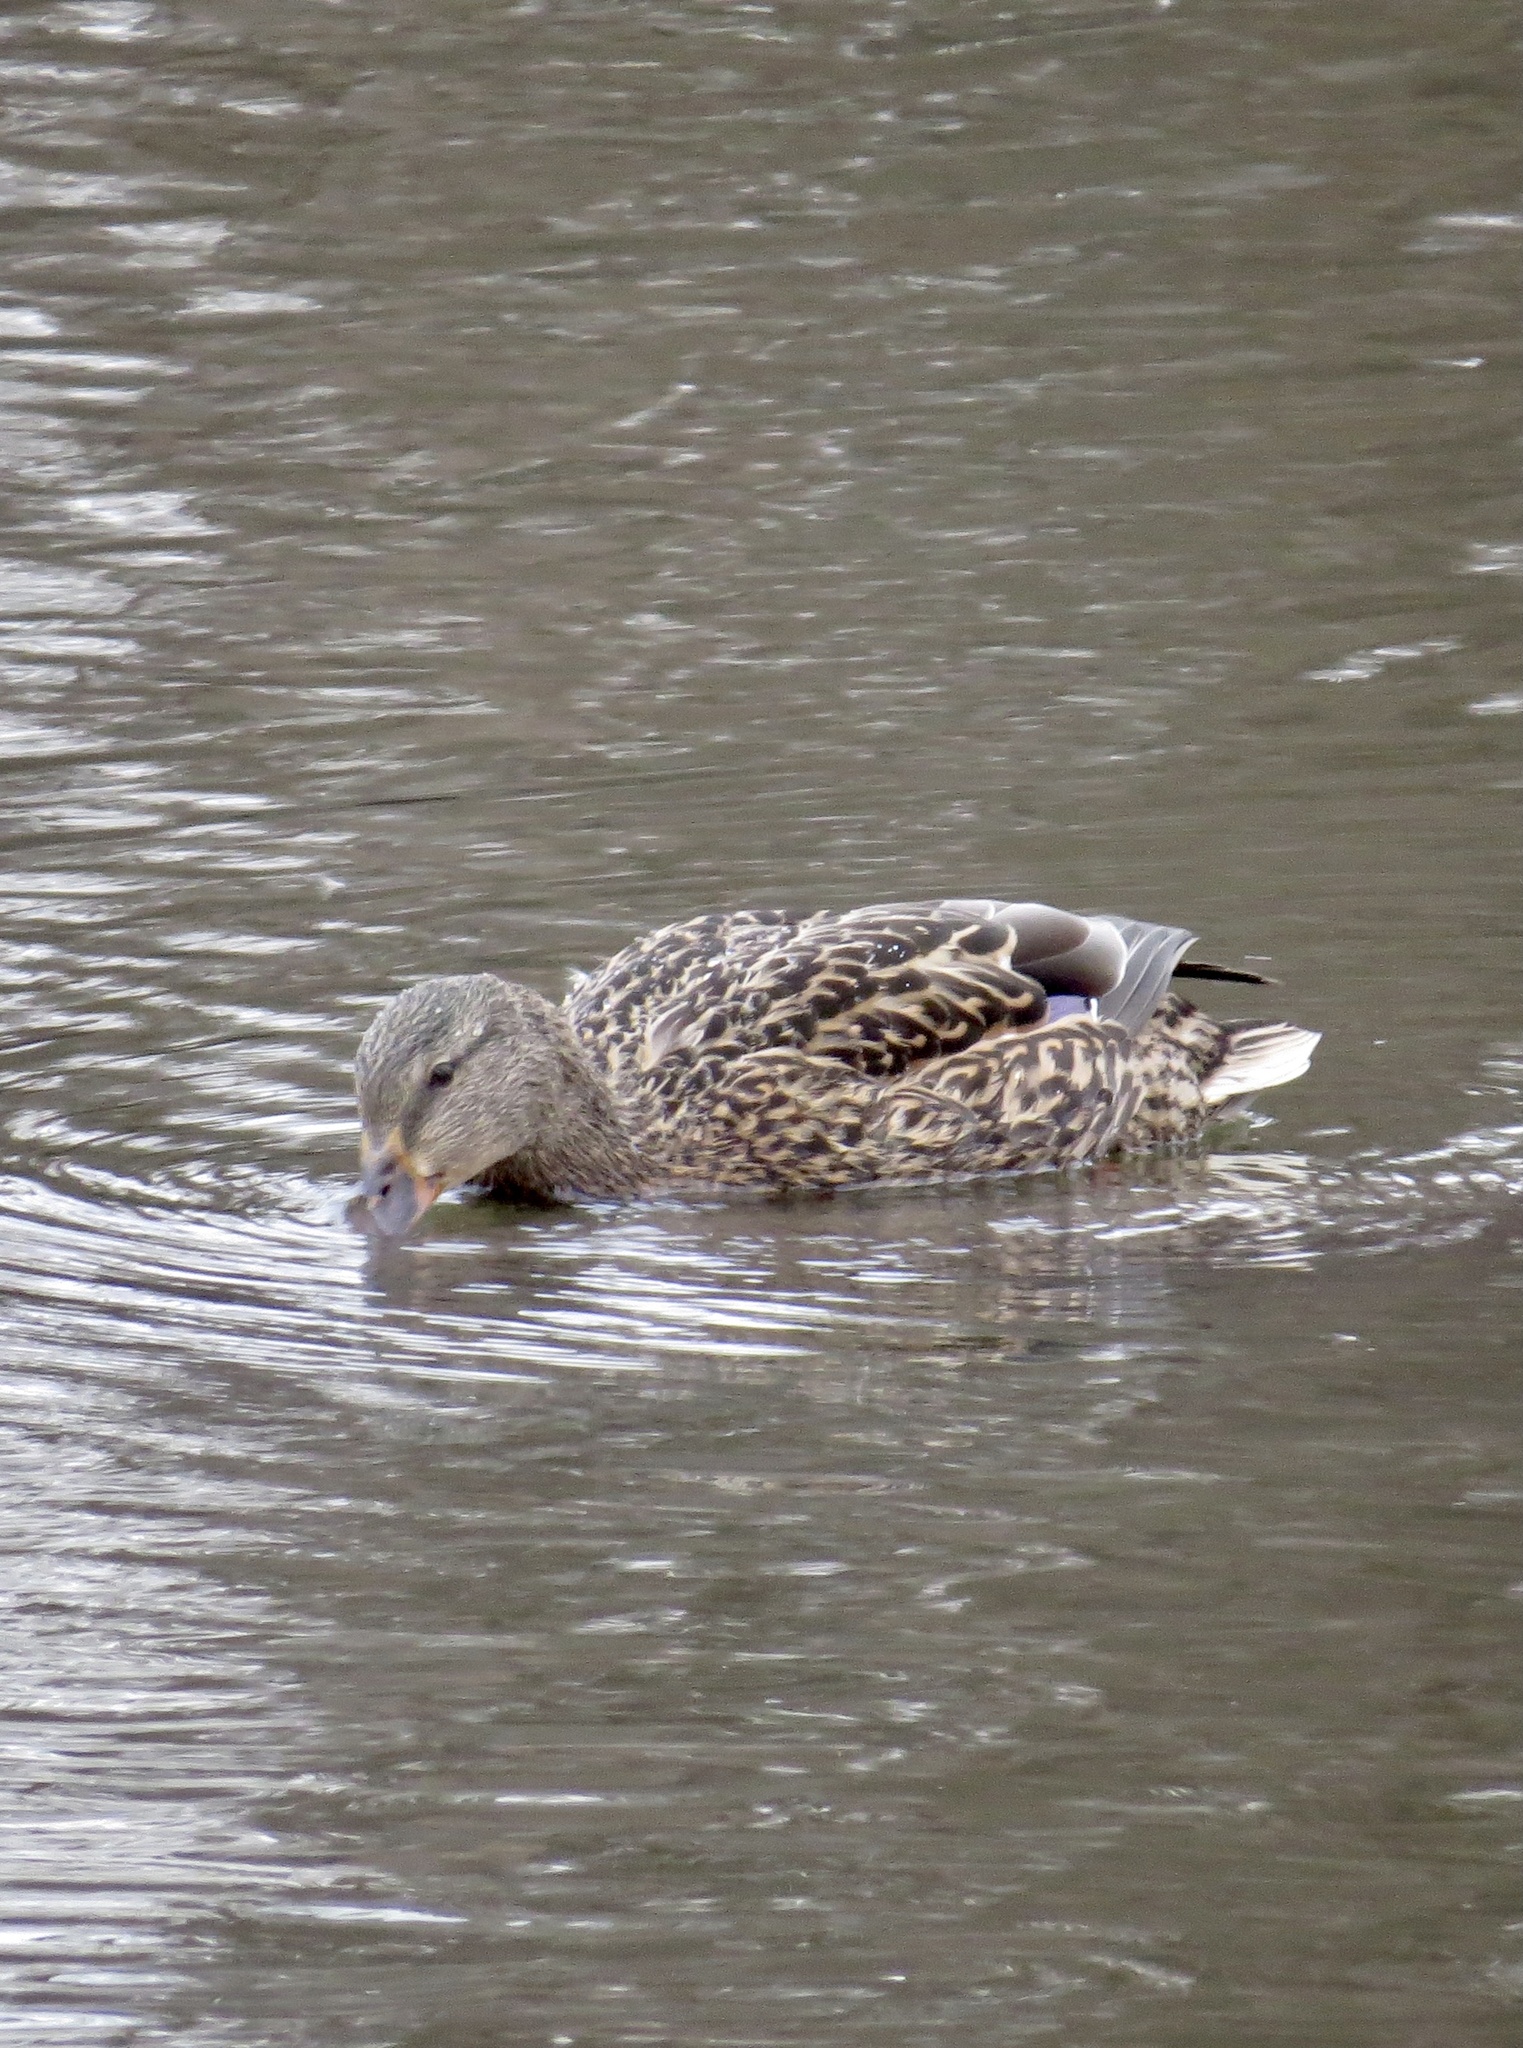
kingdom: Animalia
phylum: Chordata
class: Aves
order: Anseriformes
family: Anatidae
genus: Anas
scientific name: Anas platyrhynchos
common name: Mallard
